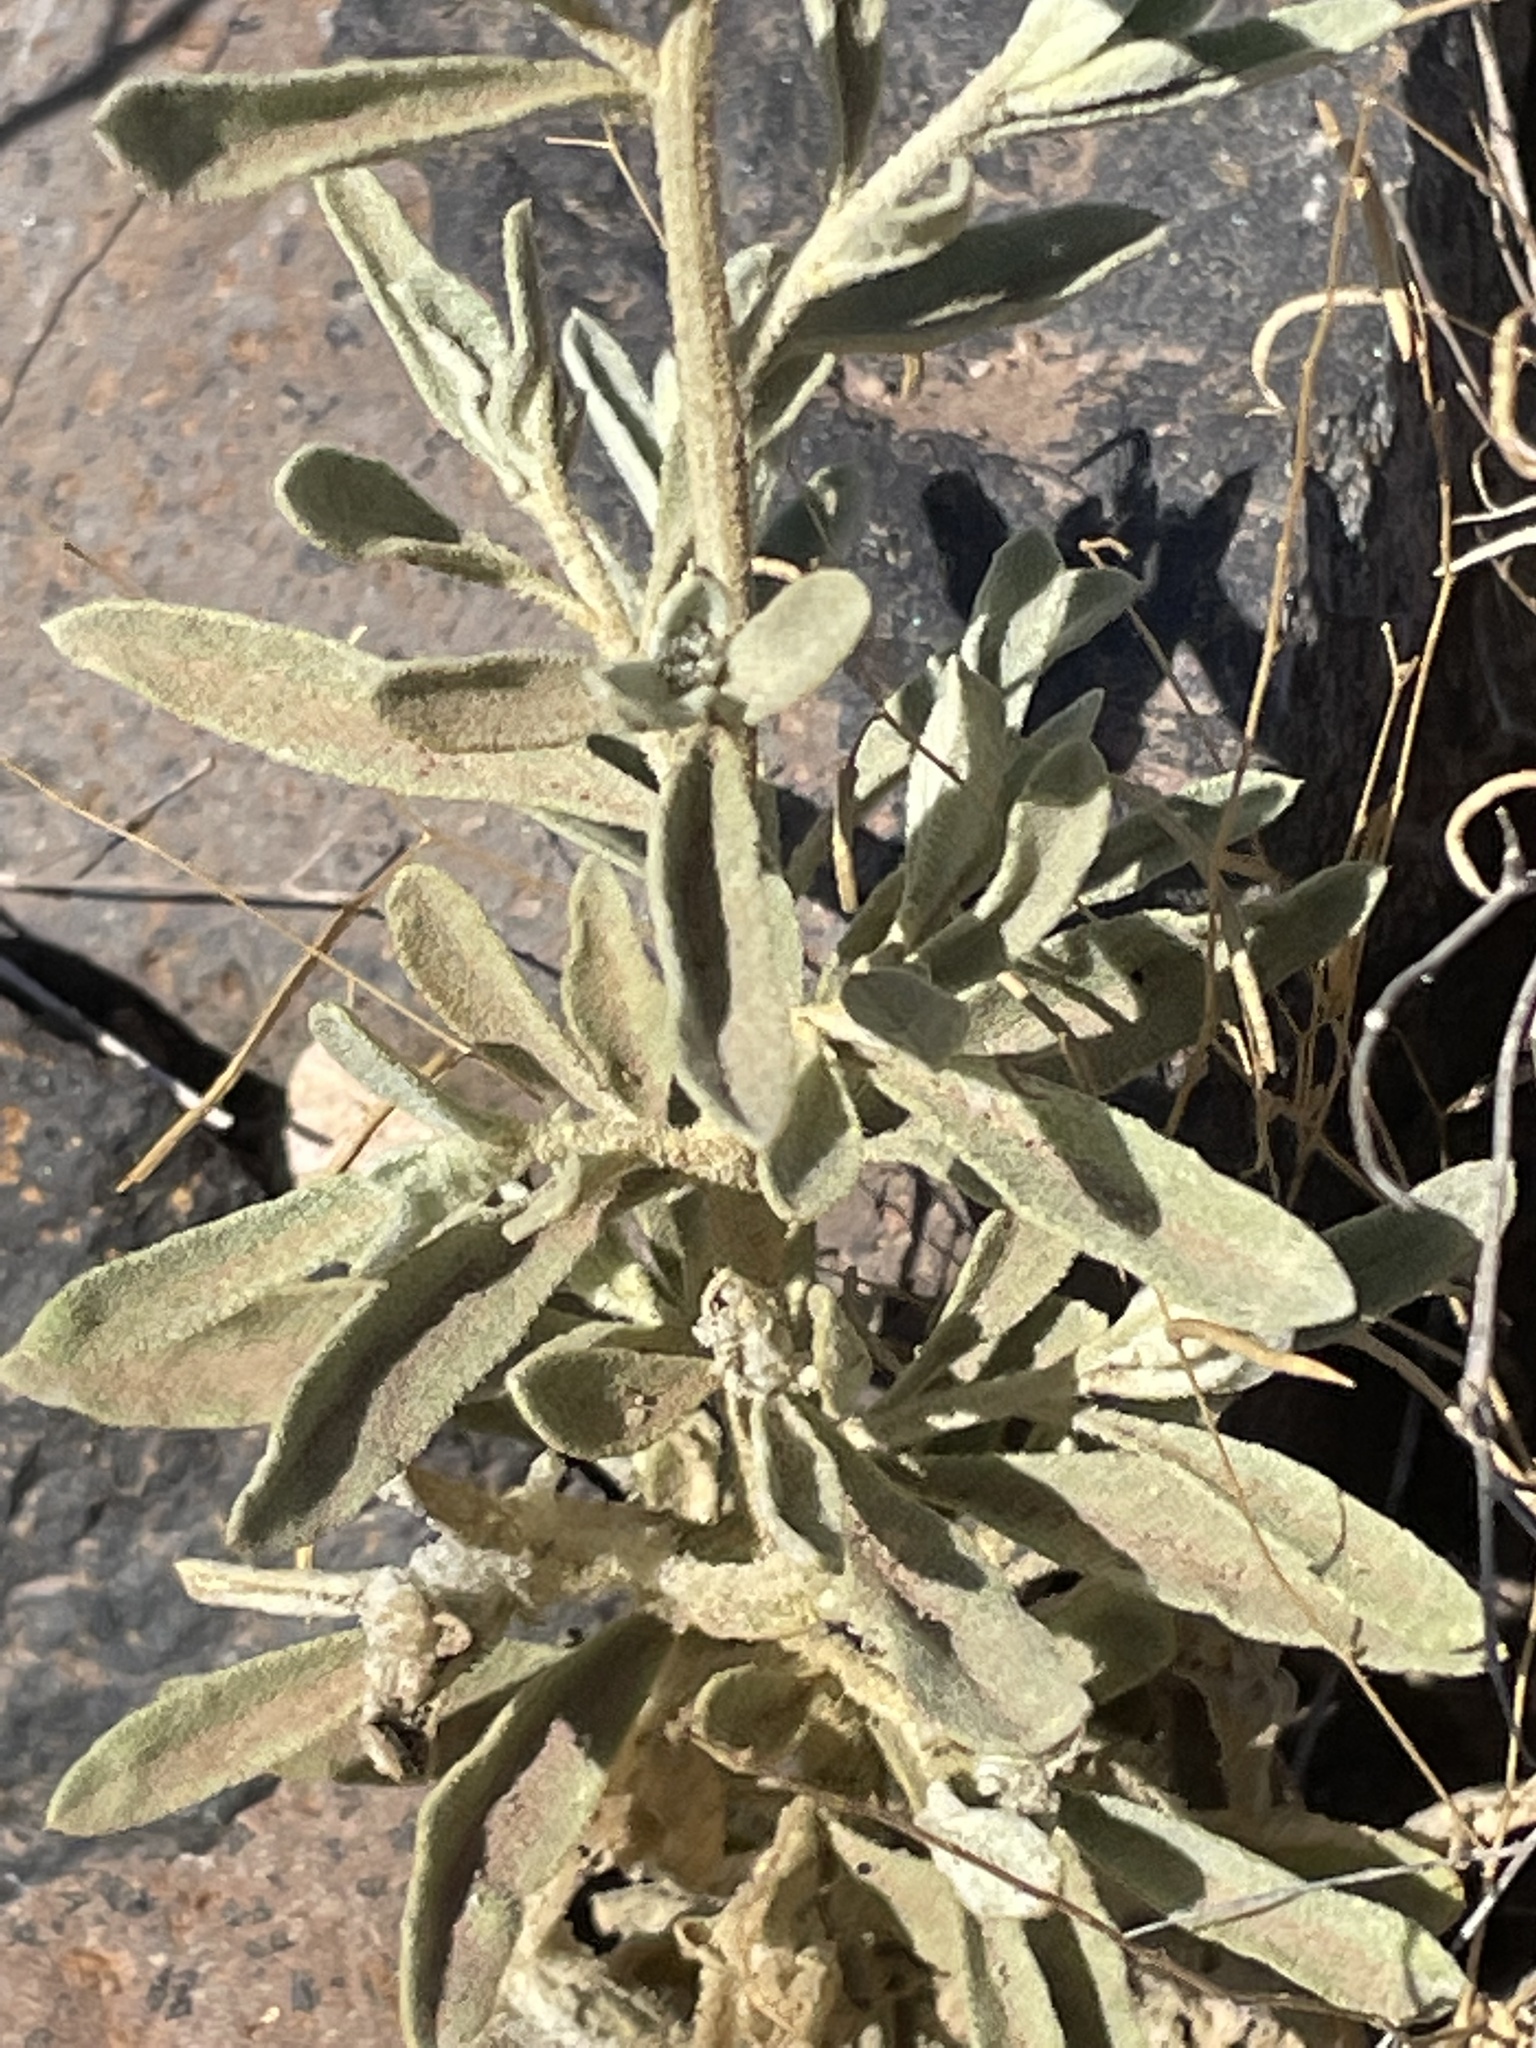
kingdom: Plantae
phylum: Tracheophyta
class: Magnoliopsida
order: Caryophyllales
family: Amaranthaceae
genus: Aerva
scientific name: Aerva javanica
